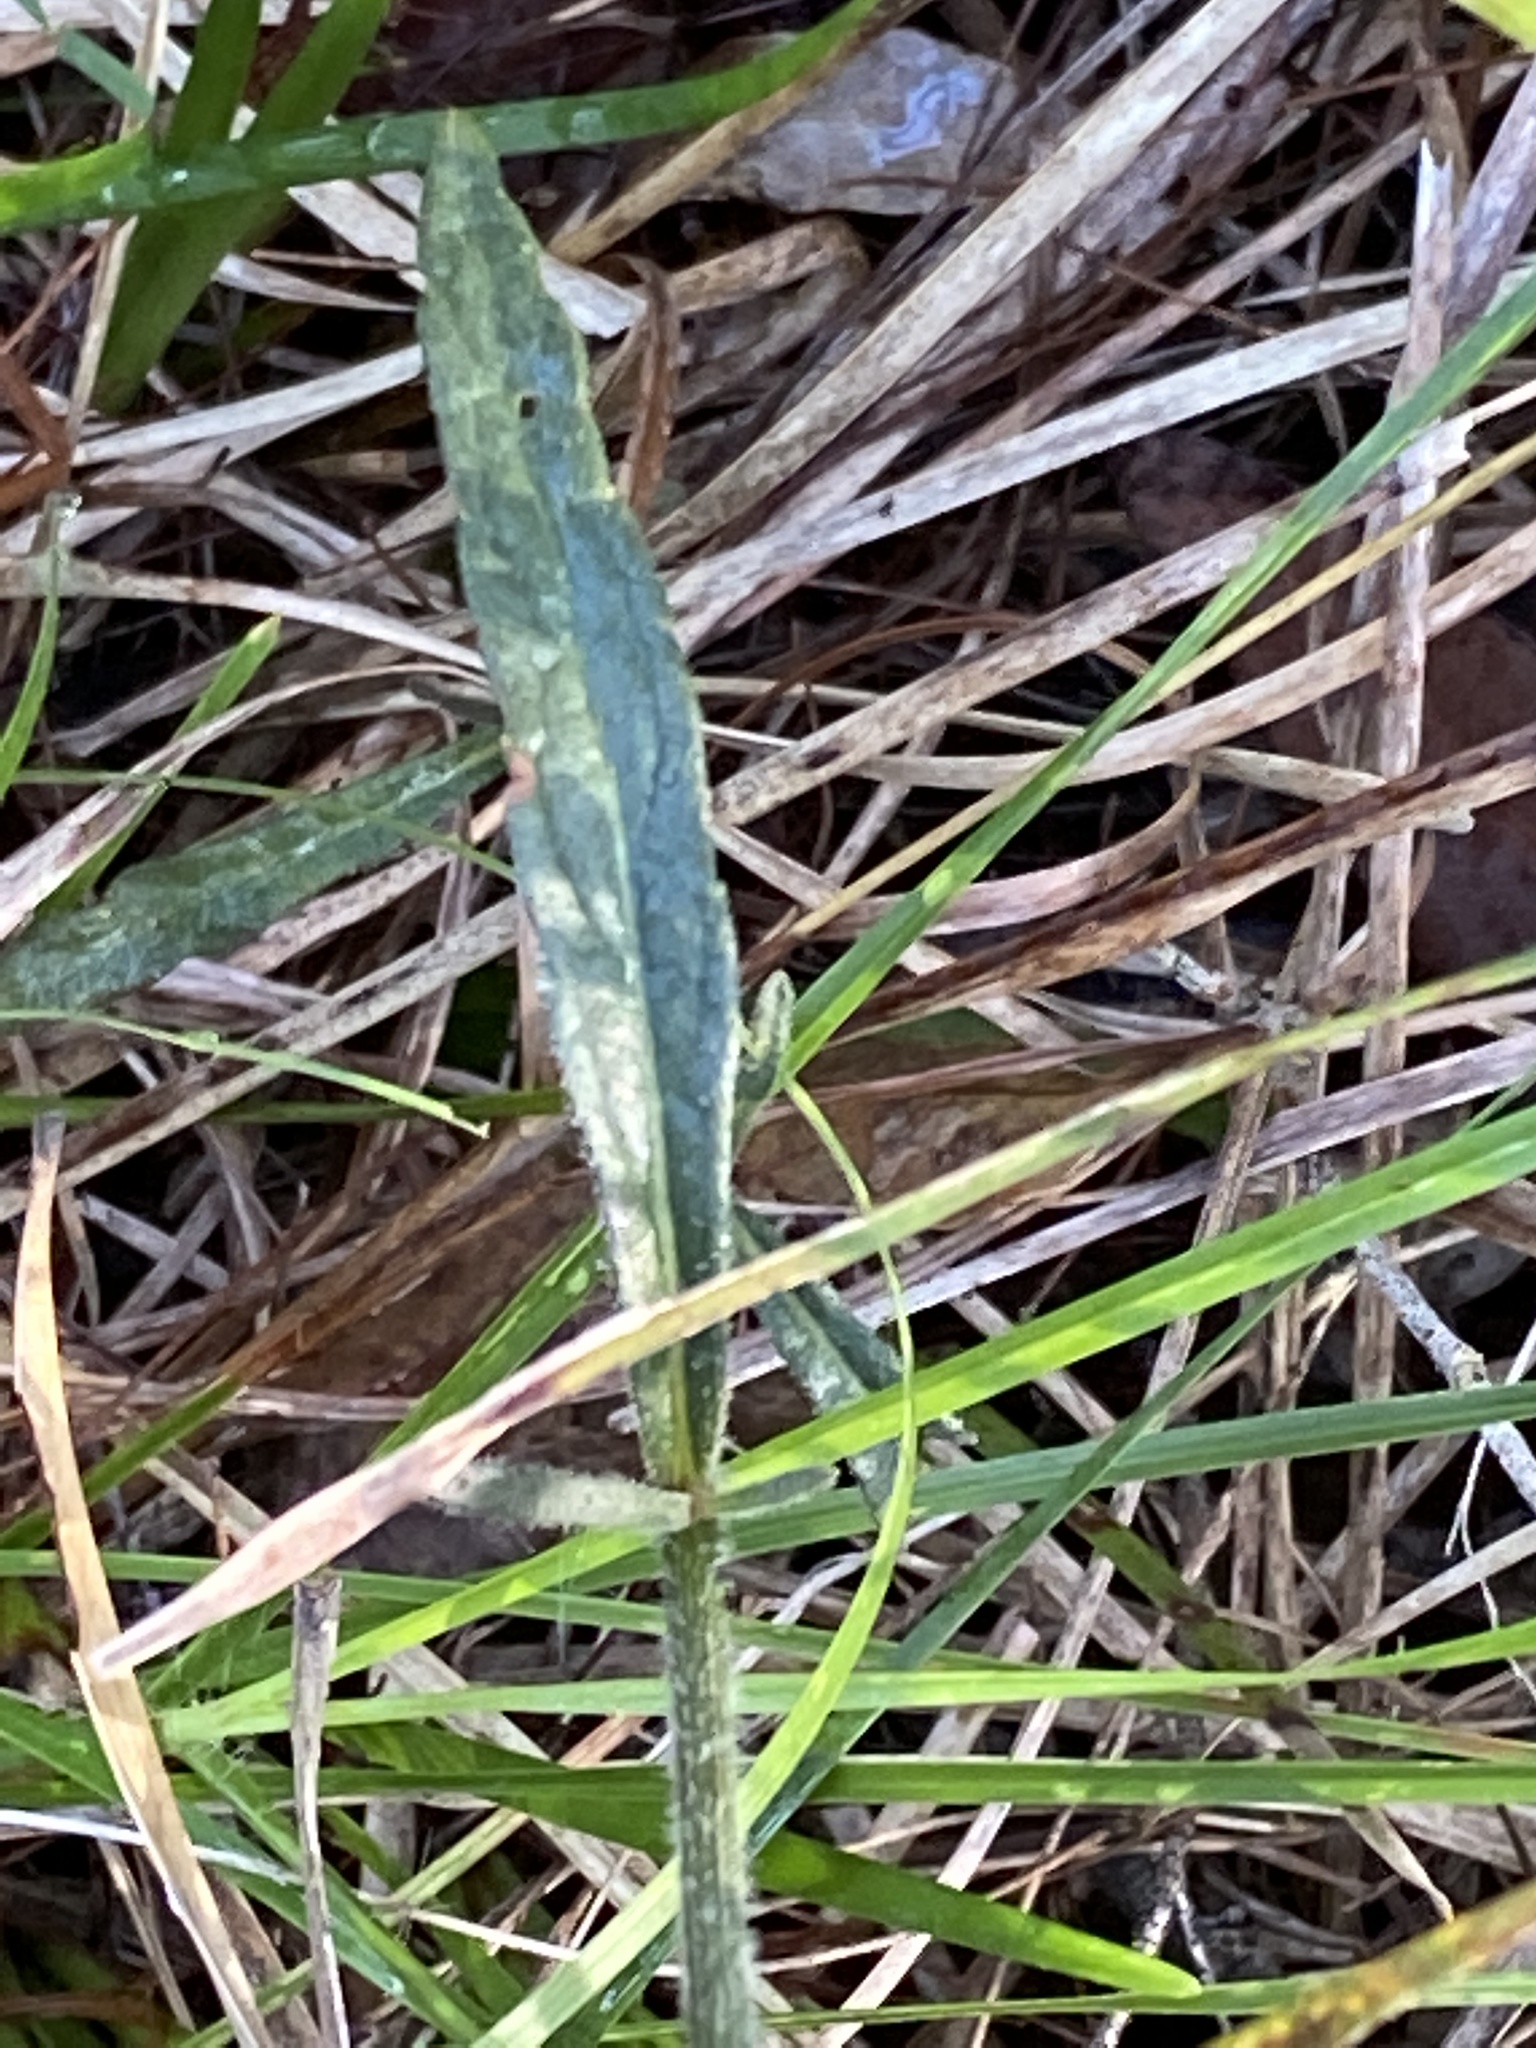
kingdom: Plantae
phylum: Tracheophyta
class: Magnoliopsida
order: Asterales
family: Asteraceae
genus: Cyanthillium
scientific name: Cyanthillium cinereum
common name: Little ironweed
